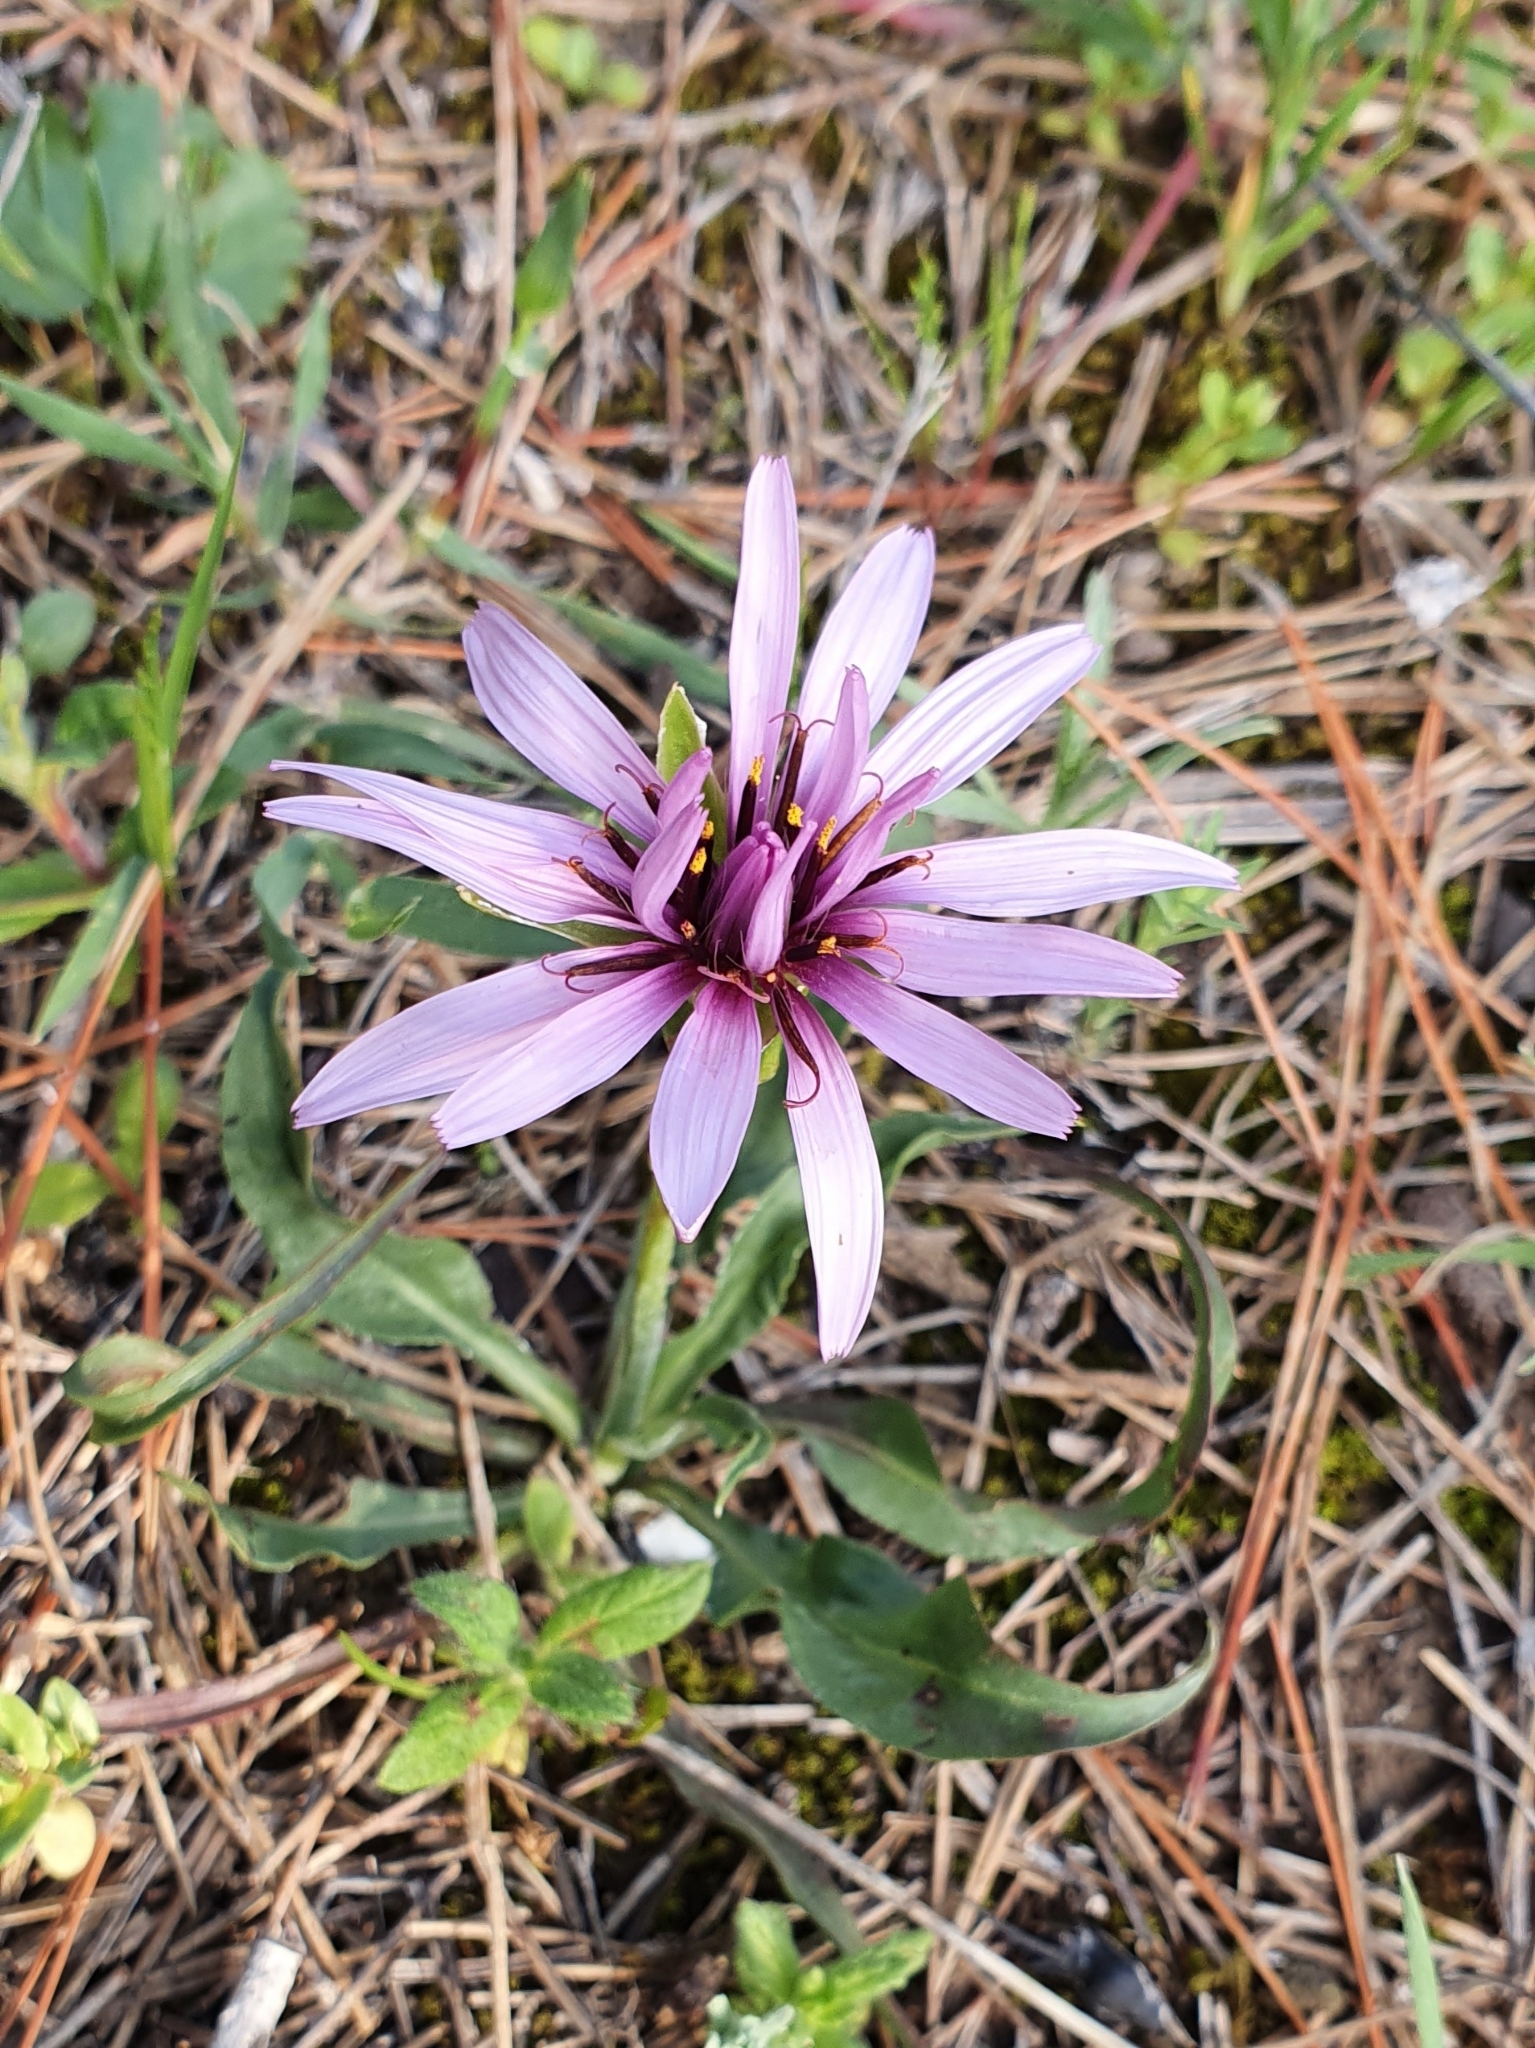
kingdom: Plantae
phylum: Tracheophyta
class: Magnoliopsida
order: Asterales
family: Asteraceae
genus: Pseudopodospermum
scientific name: Pseudopodospermum undulatum
